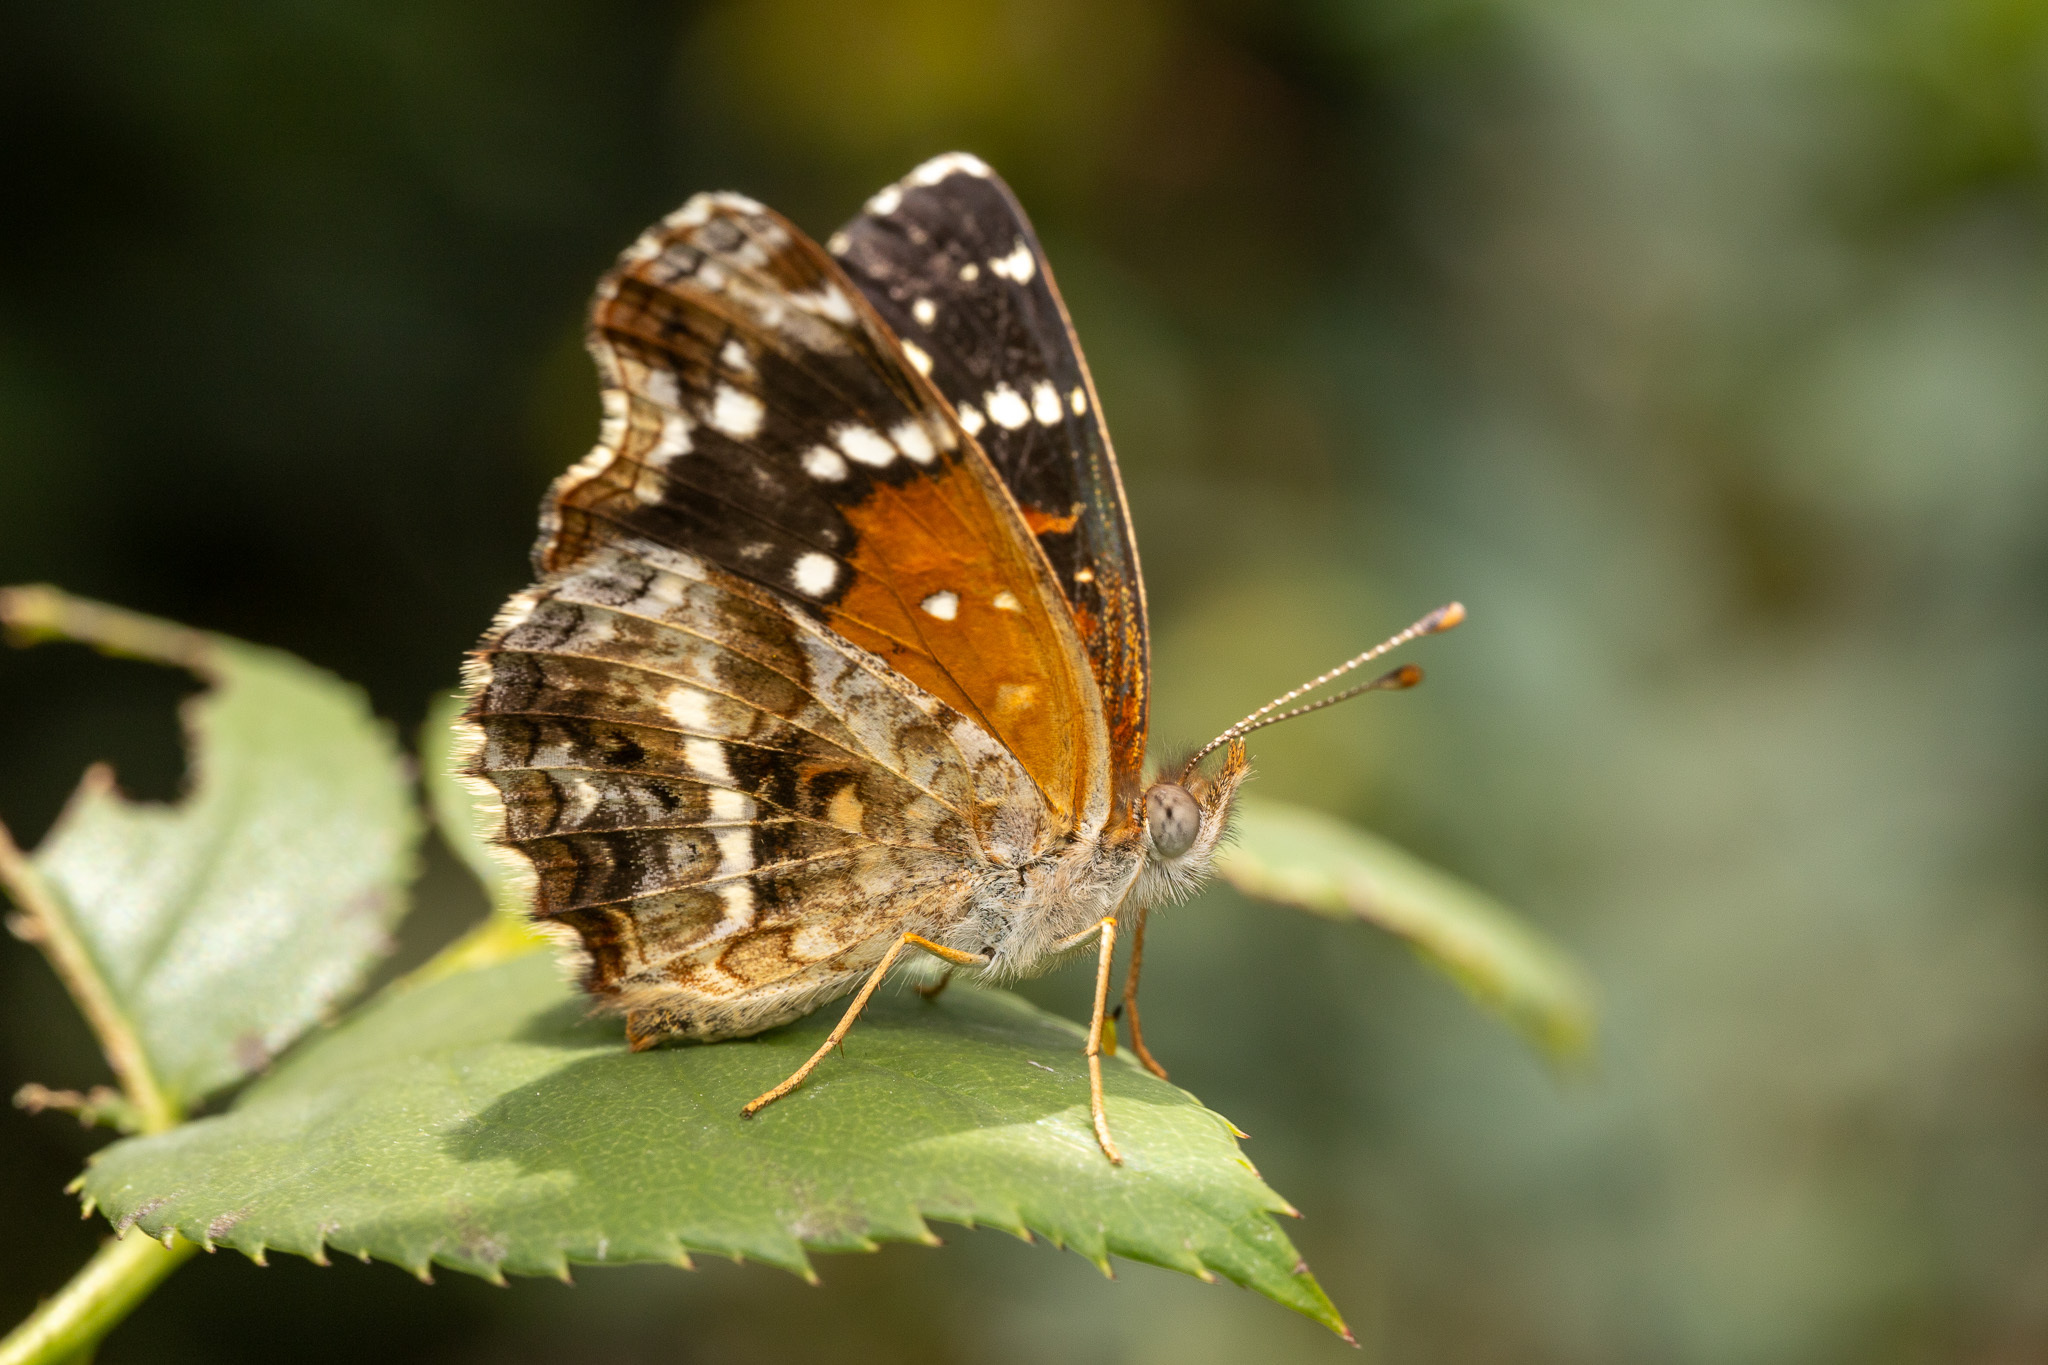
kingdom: Animalia
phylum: Arthropoda
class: Insecta
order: Lepidoptera
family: Nymphalidae
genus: Anthanassa
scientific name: Anthanassa texana
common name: Texan crescent
